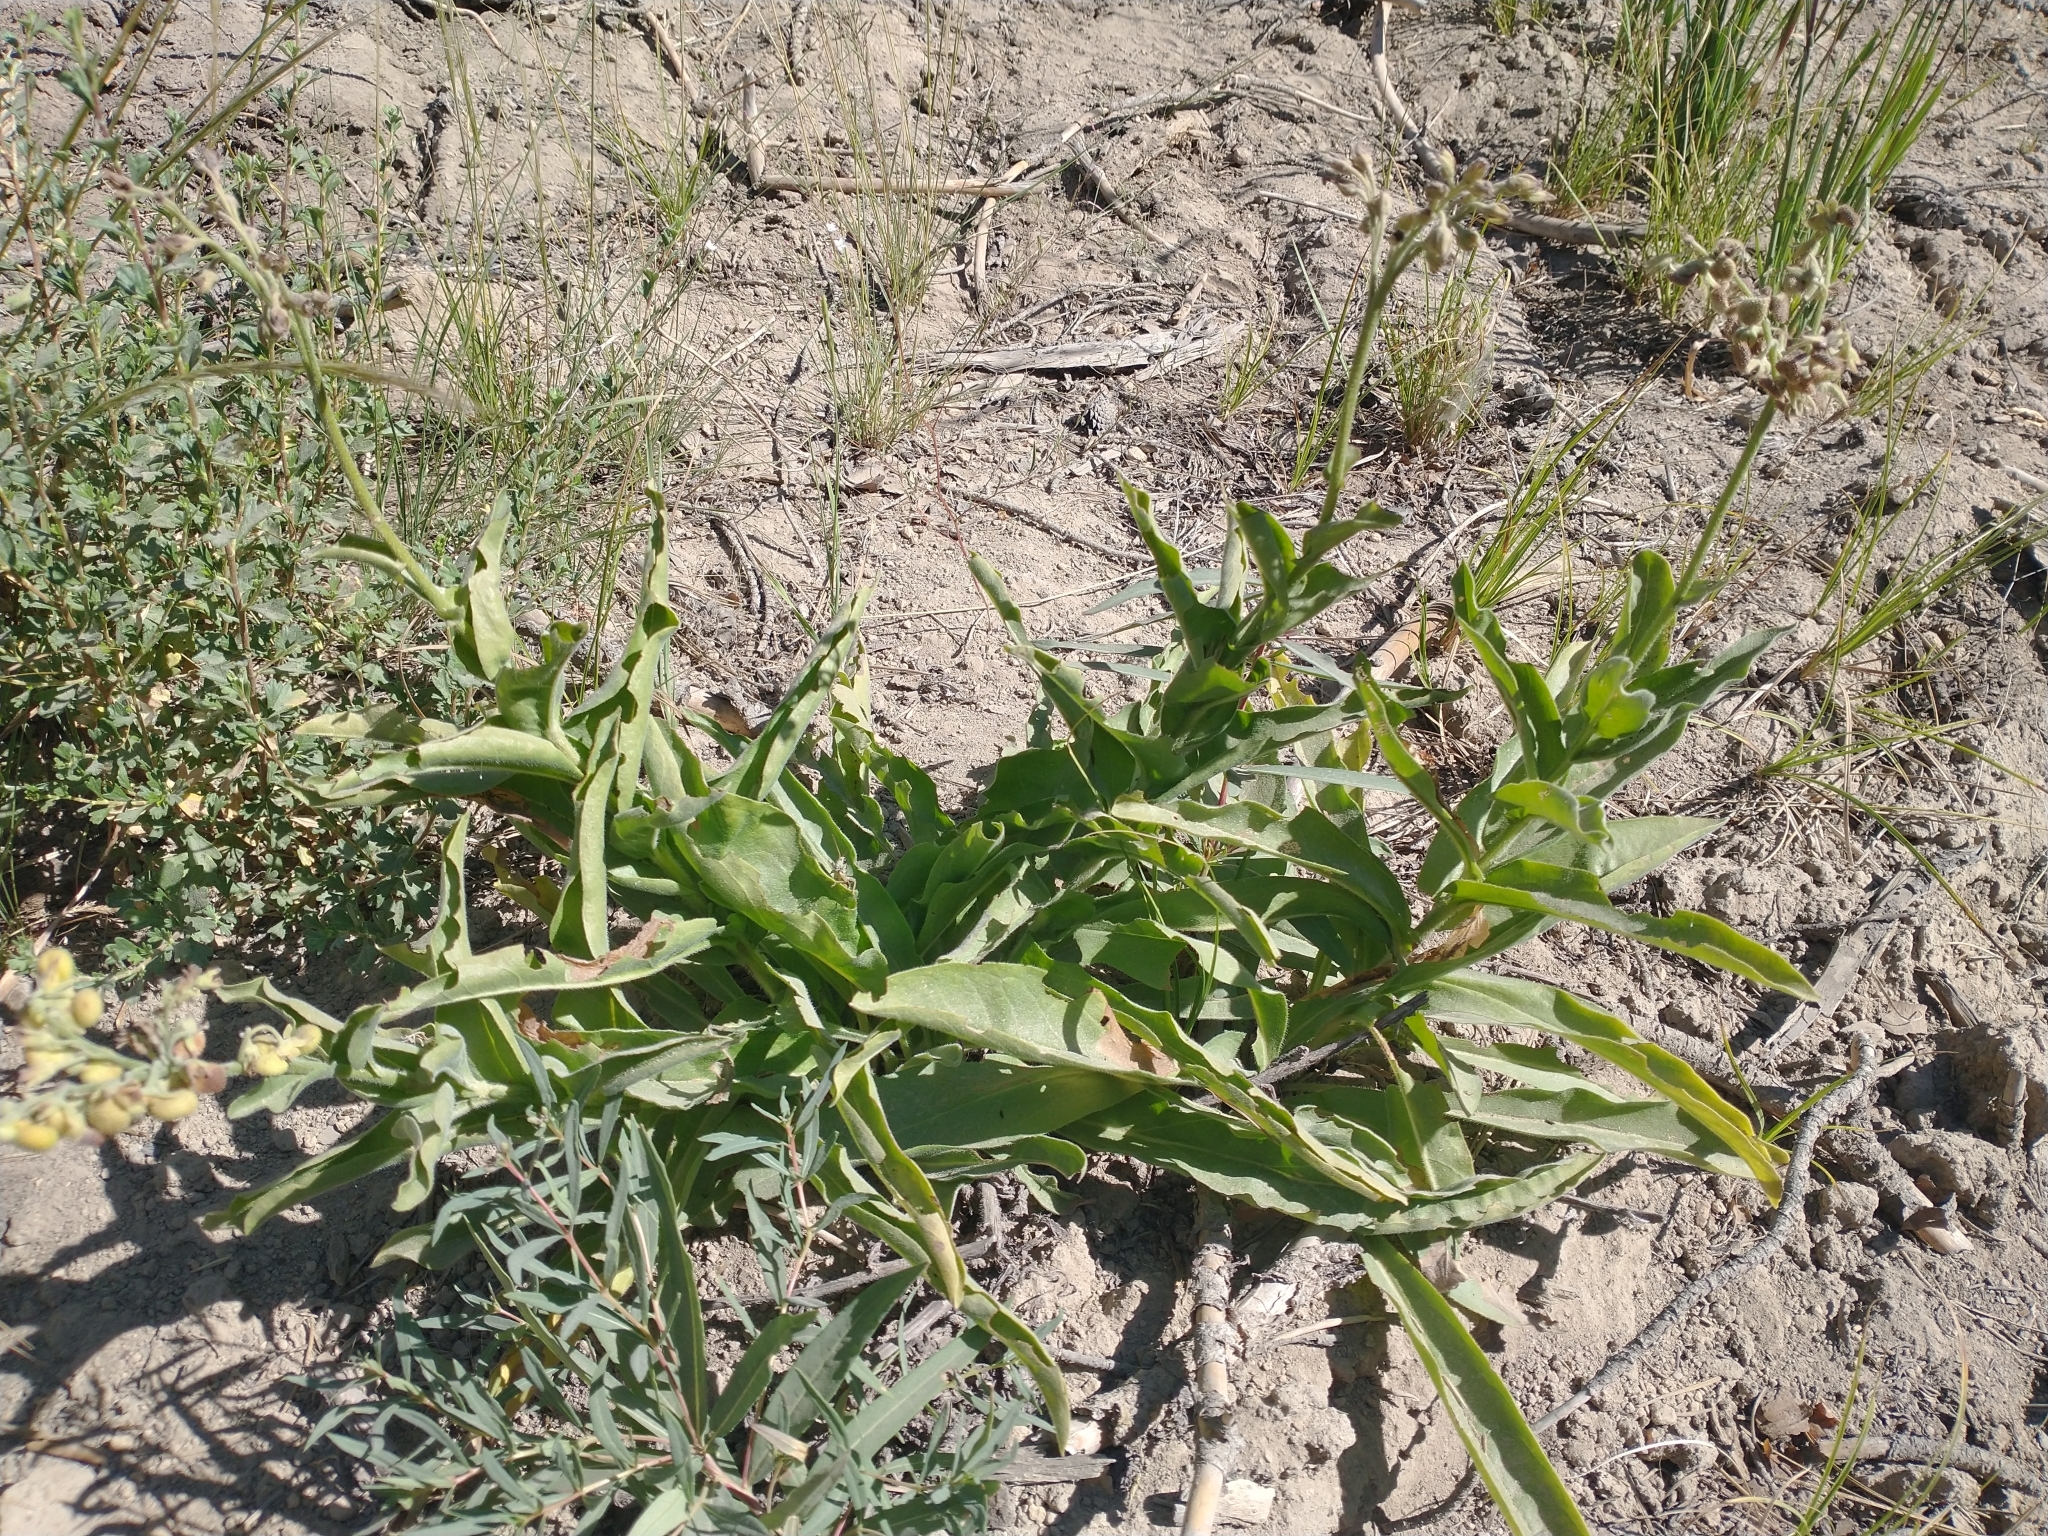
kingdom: Plantae
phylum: Tracheophyta
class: Magnoliopsida
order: Boraginales
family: Boraginaceae
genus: Andersonglossum
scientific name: Andersonglossum occidentale
